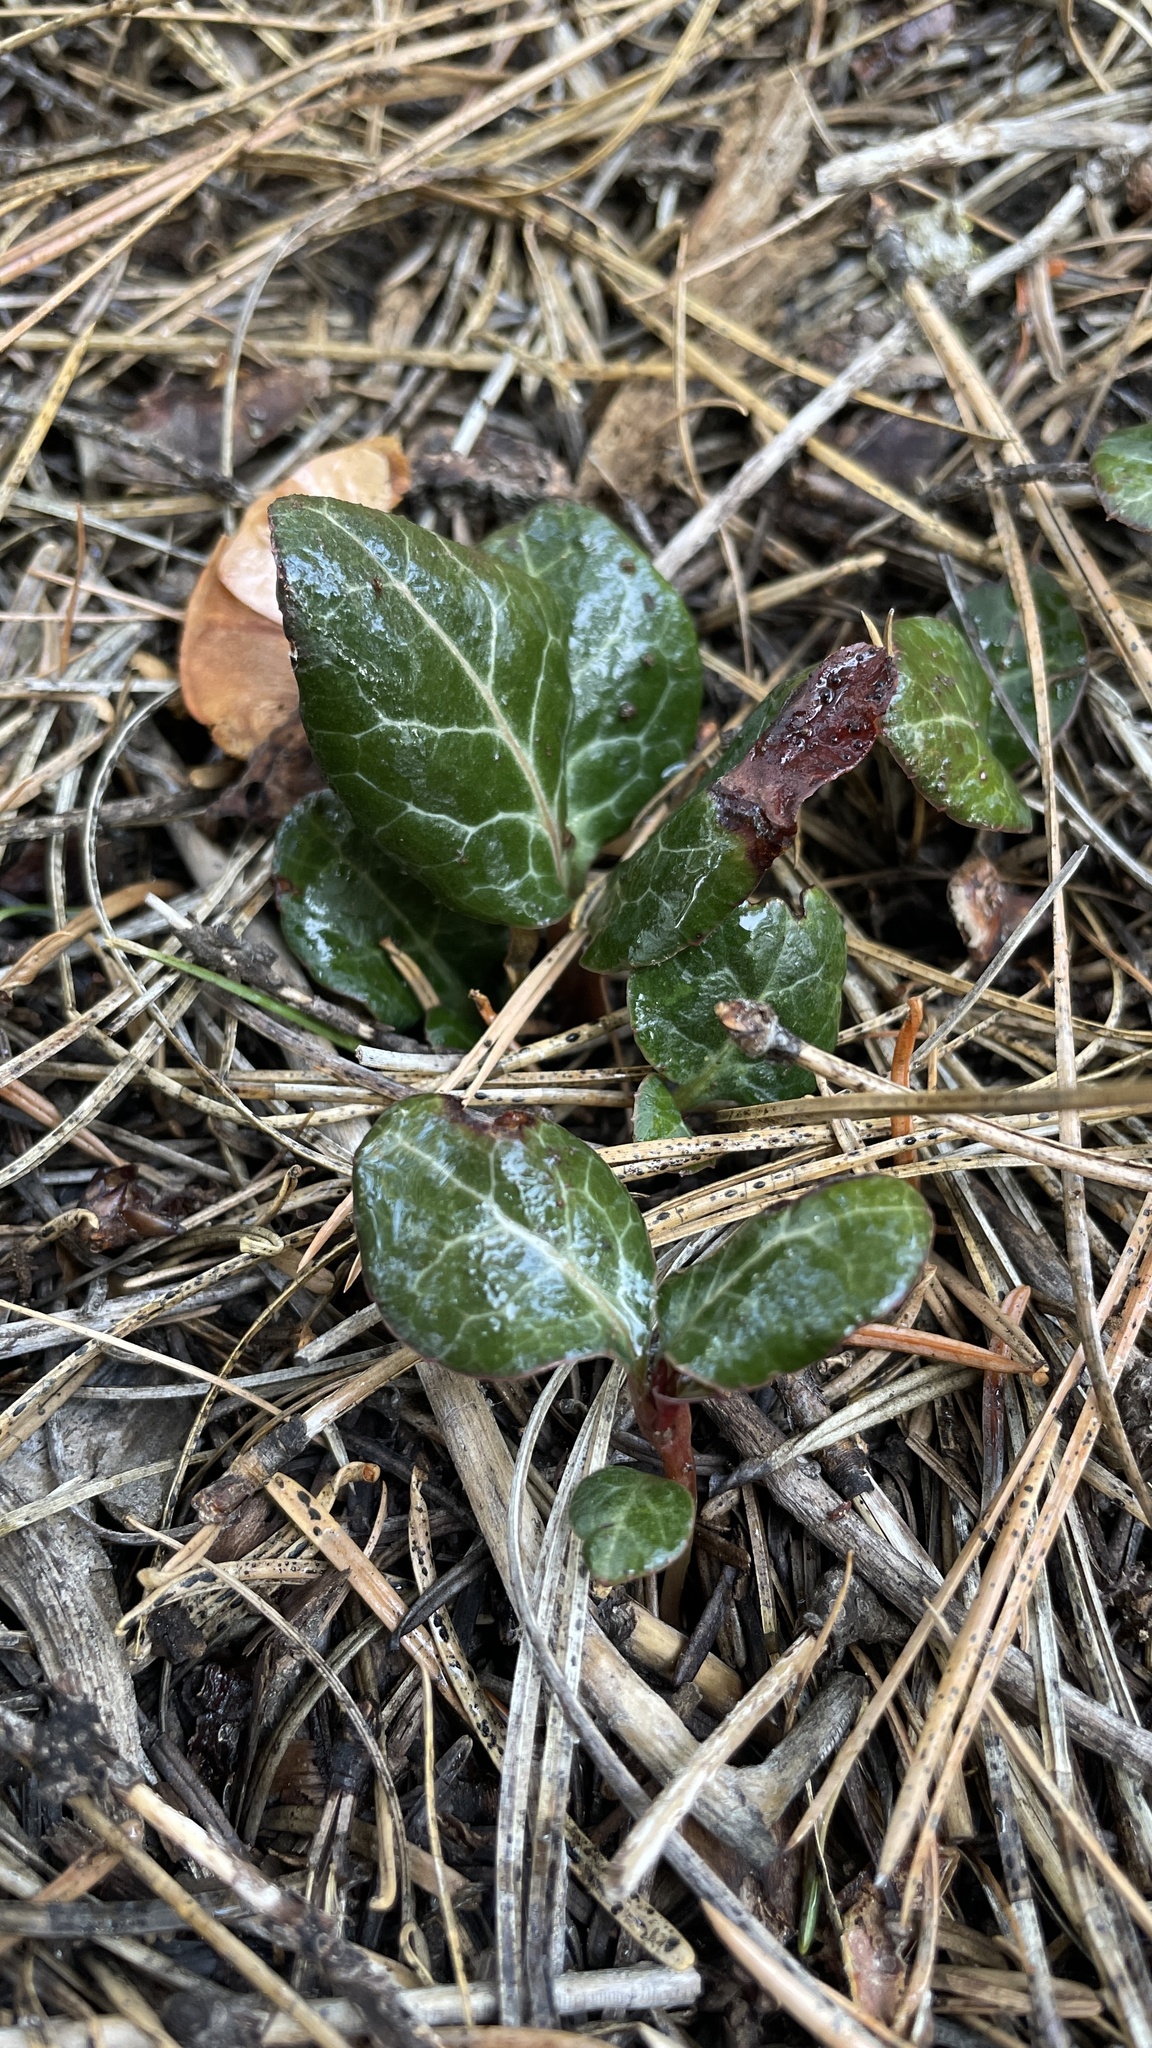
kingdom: Plantae
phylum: Tracheophyta
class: Magnoliopsida
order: Ericales
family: Ericaceae
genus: Pyrola
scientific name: Pyrola picta
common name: White-vein wintergreen
